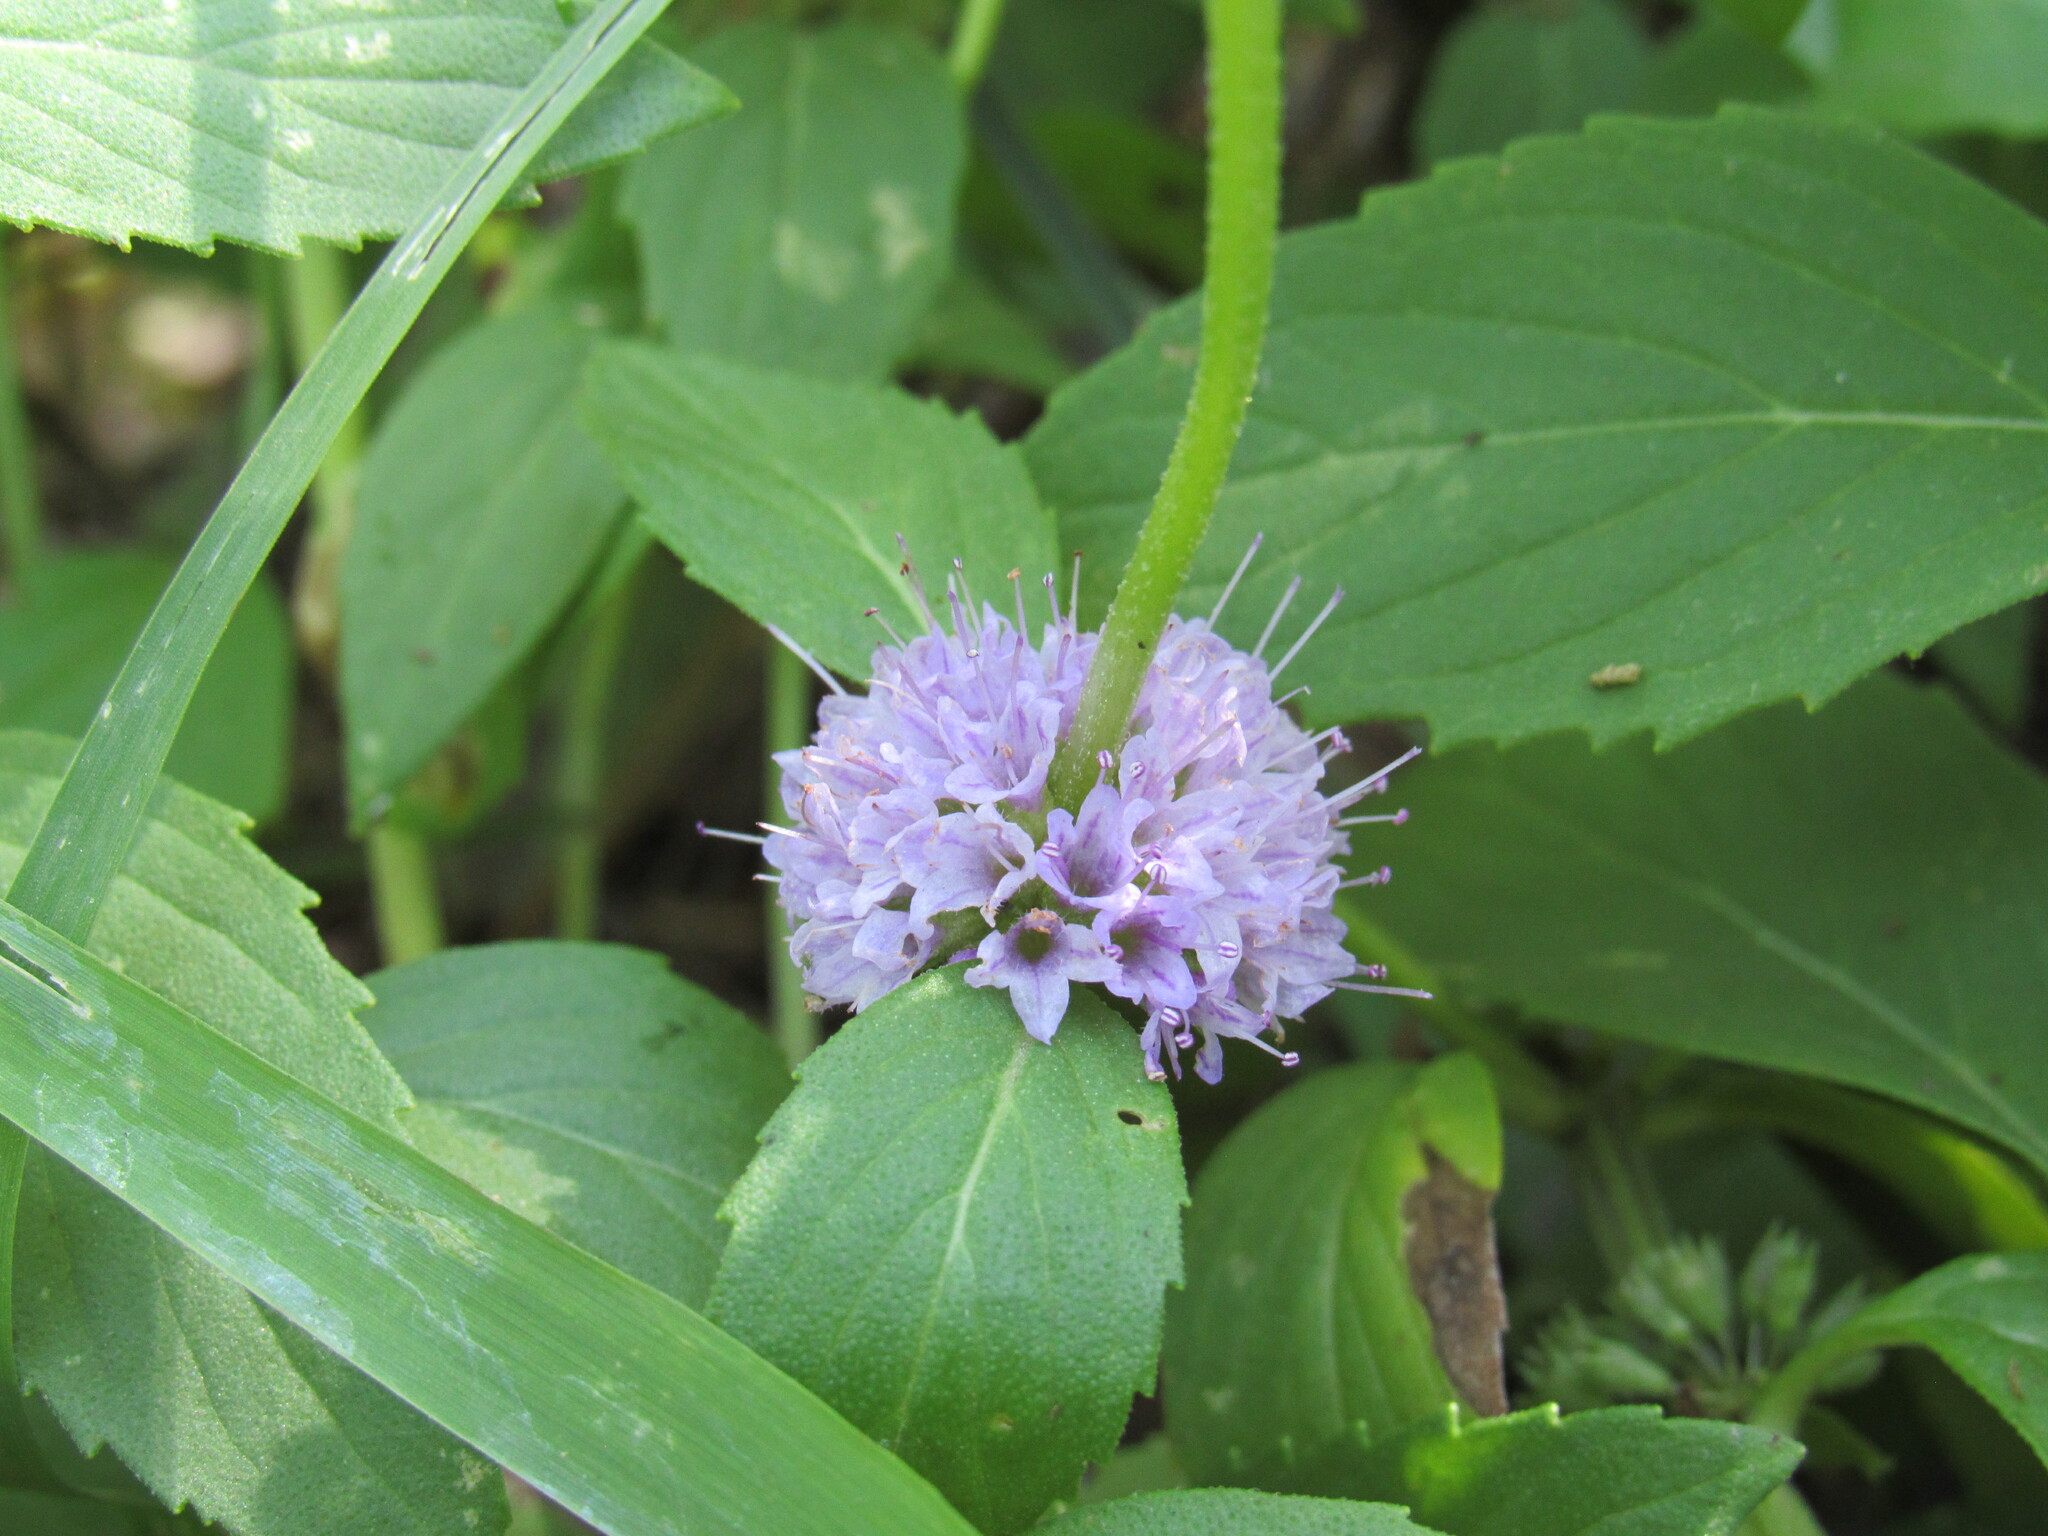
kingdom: Plantae
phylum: Tracheophyta
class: Magnoliopsida
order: Lamiales
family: Lamiaceae
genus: Mentha
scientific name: Mentha canadensis
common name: American corn mint
